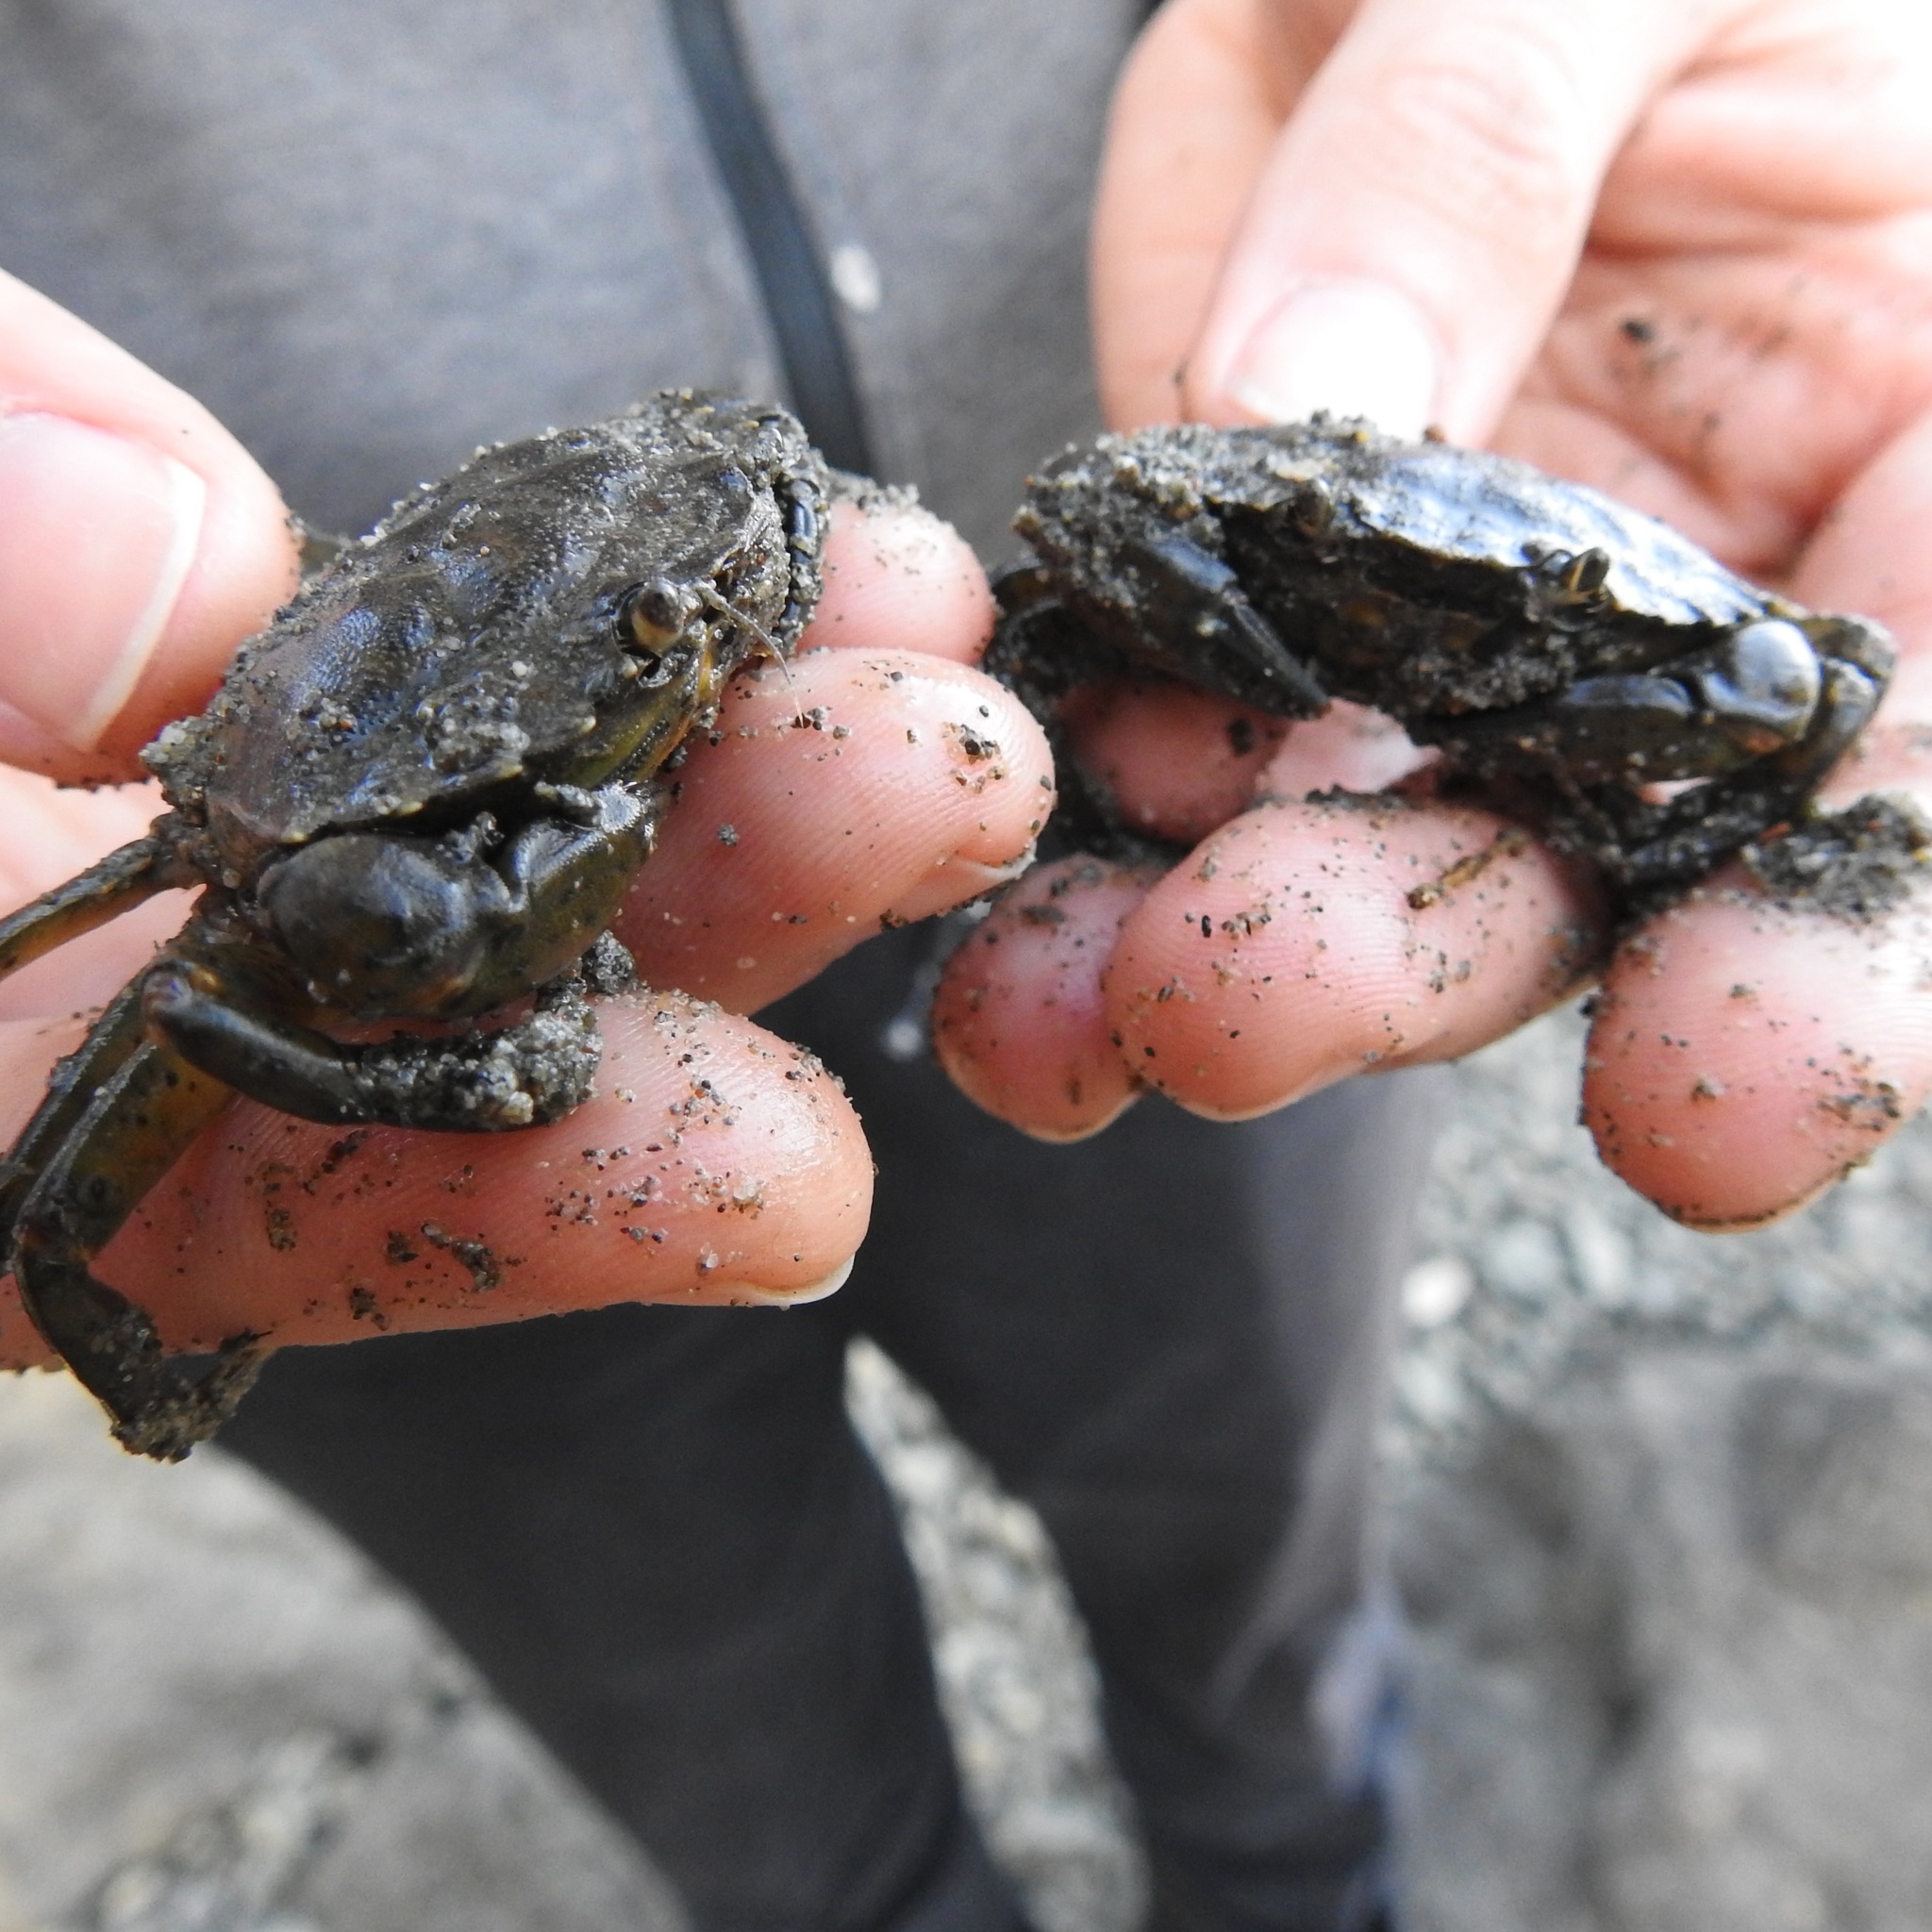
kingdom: Animalia
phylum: Arthropoda
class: Malacostraca
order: Decapoda
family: Carcinidae
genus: Carcinus
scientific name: Carcinus maenas
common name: European green crab
